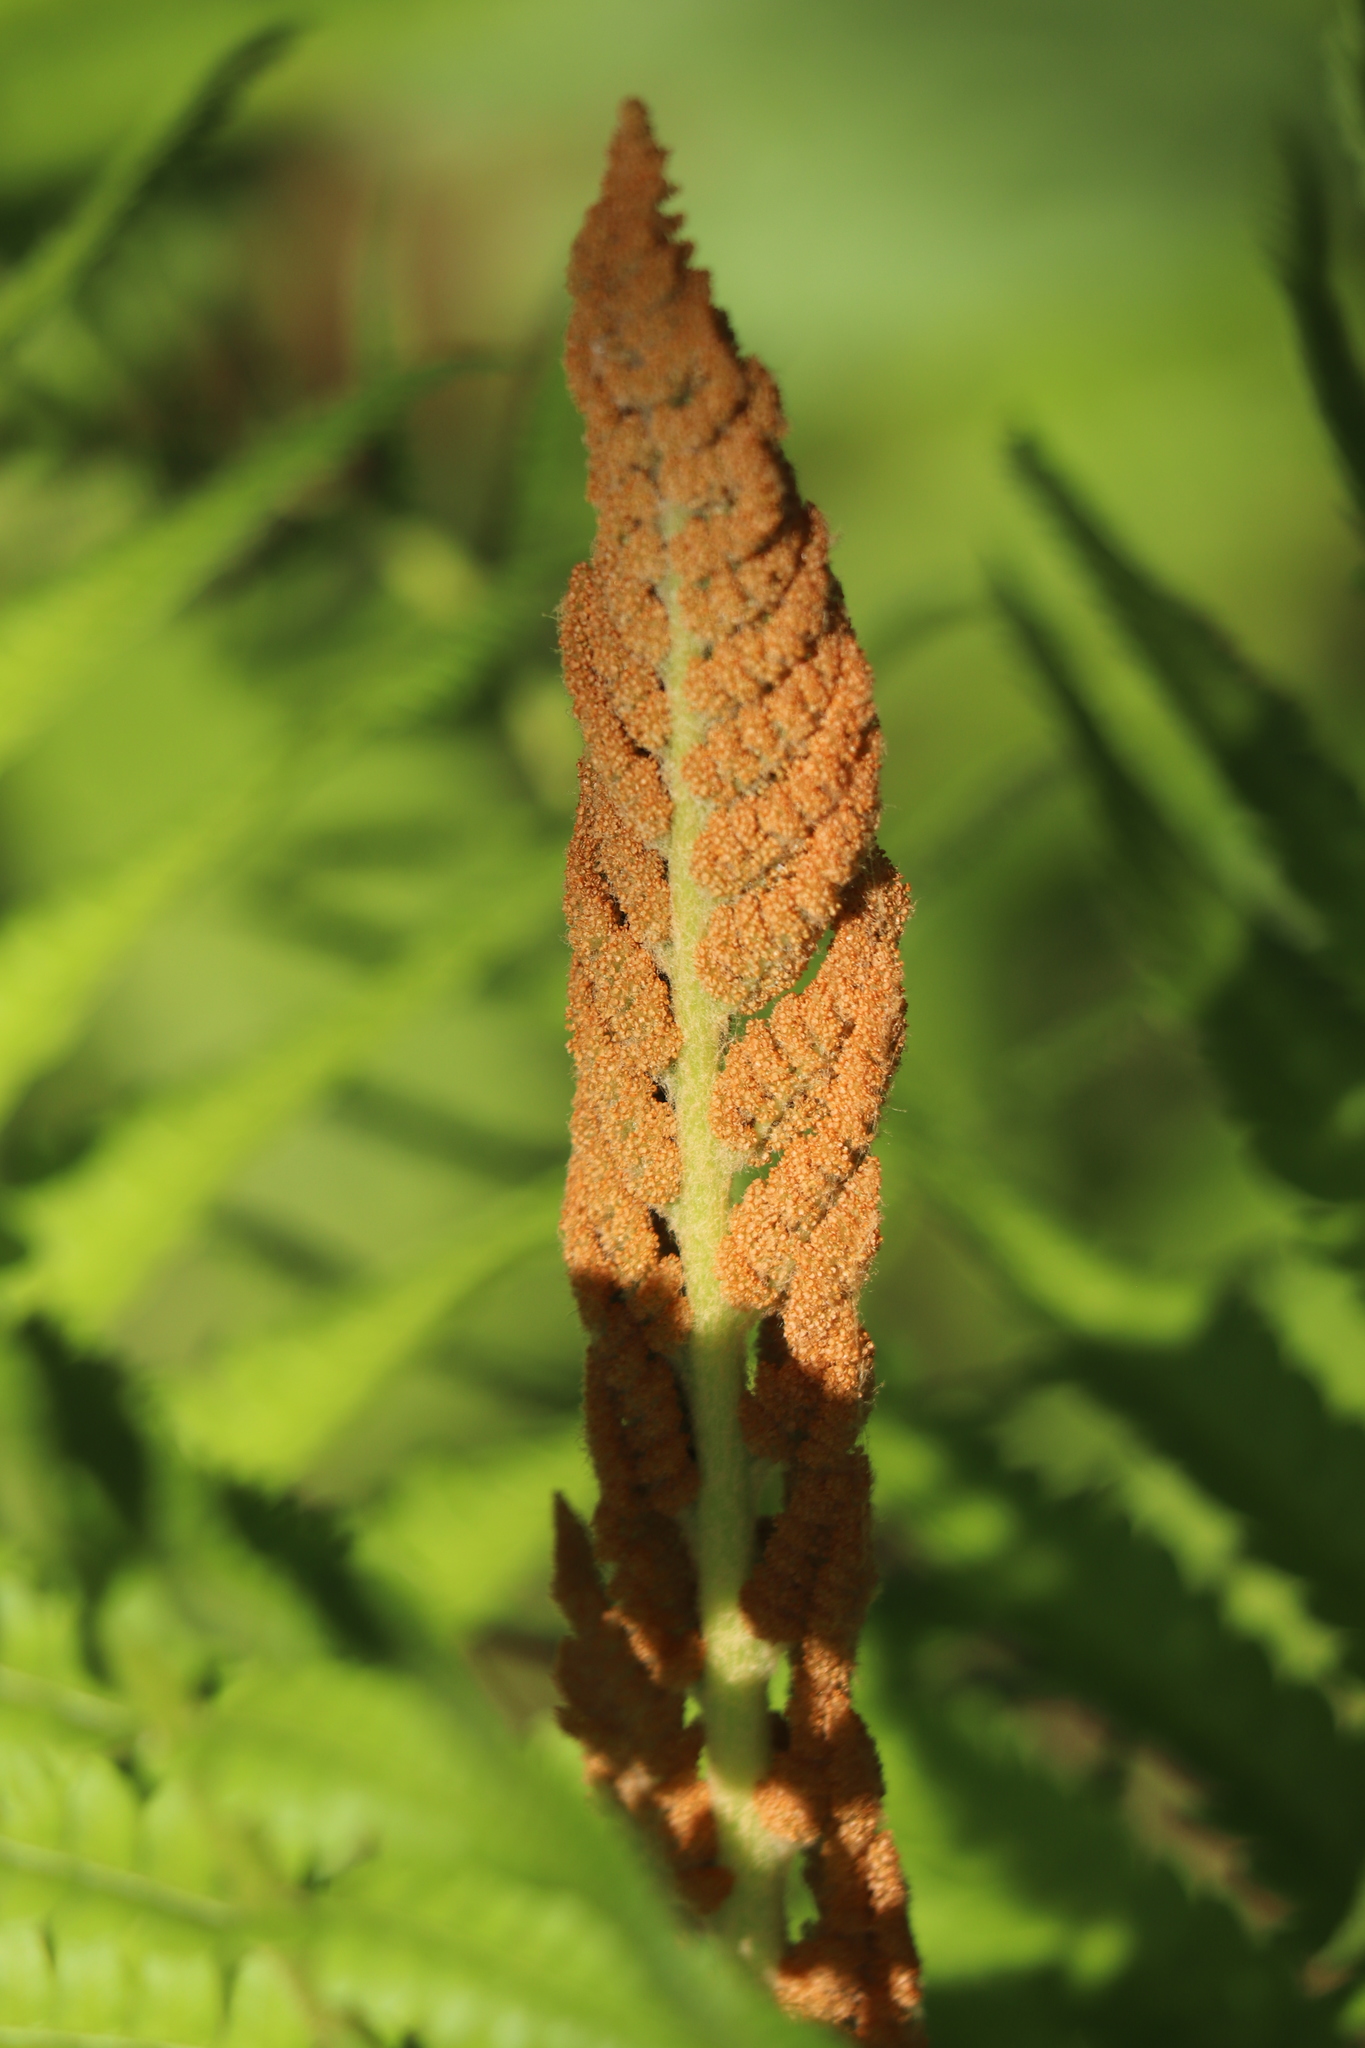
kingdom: Plantae
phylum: Tracheophyta
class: Polypodiopsida
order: Osmundales
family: Osmundaceae
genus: Osmundastrum
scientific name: Osmundastrum cinnamomeum
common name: Cinnamon fern
